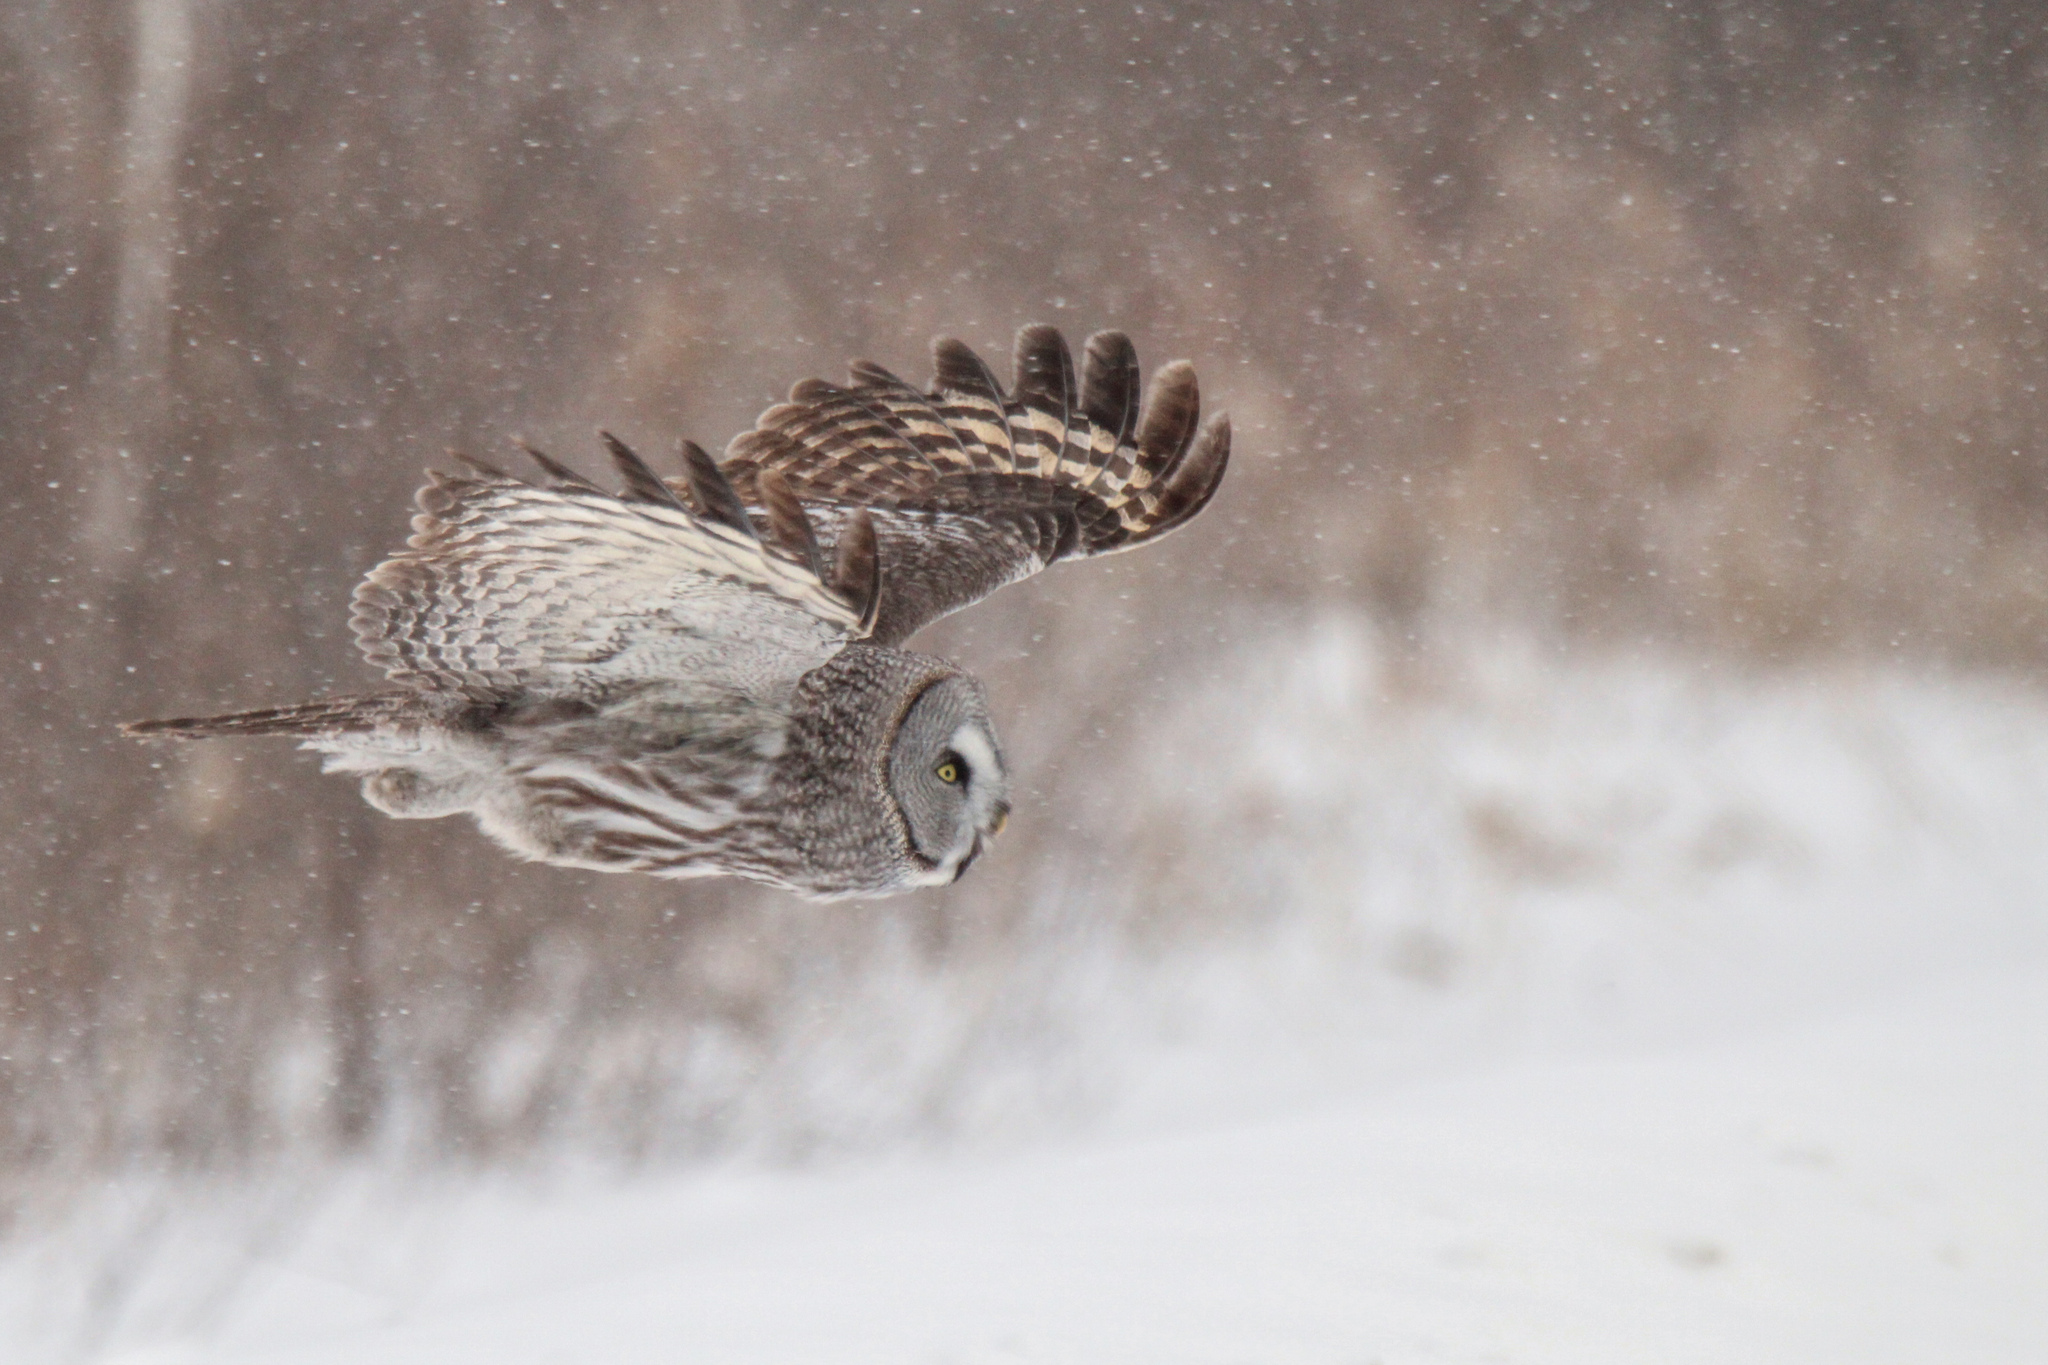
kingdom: Animalia
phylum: Chordata
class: Aves
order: Strigiformes
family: Strigidae
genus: Strix
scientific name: Strix nebulosa
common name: Great grey owl
